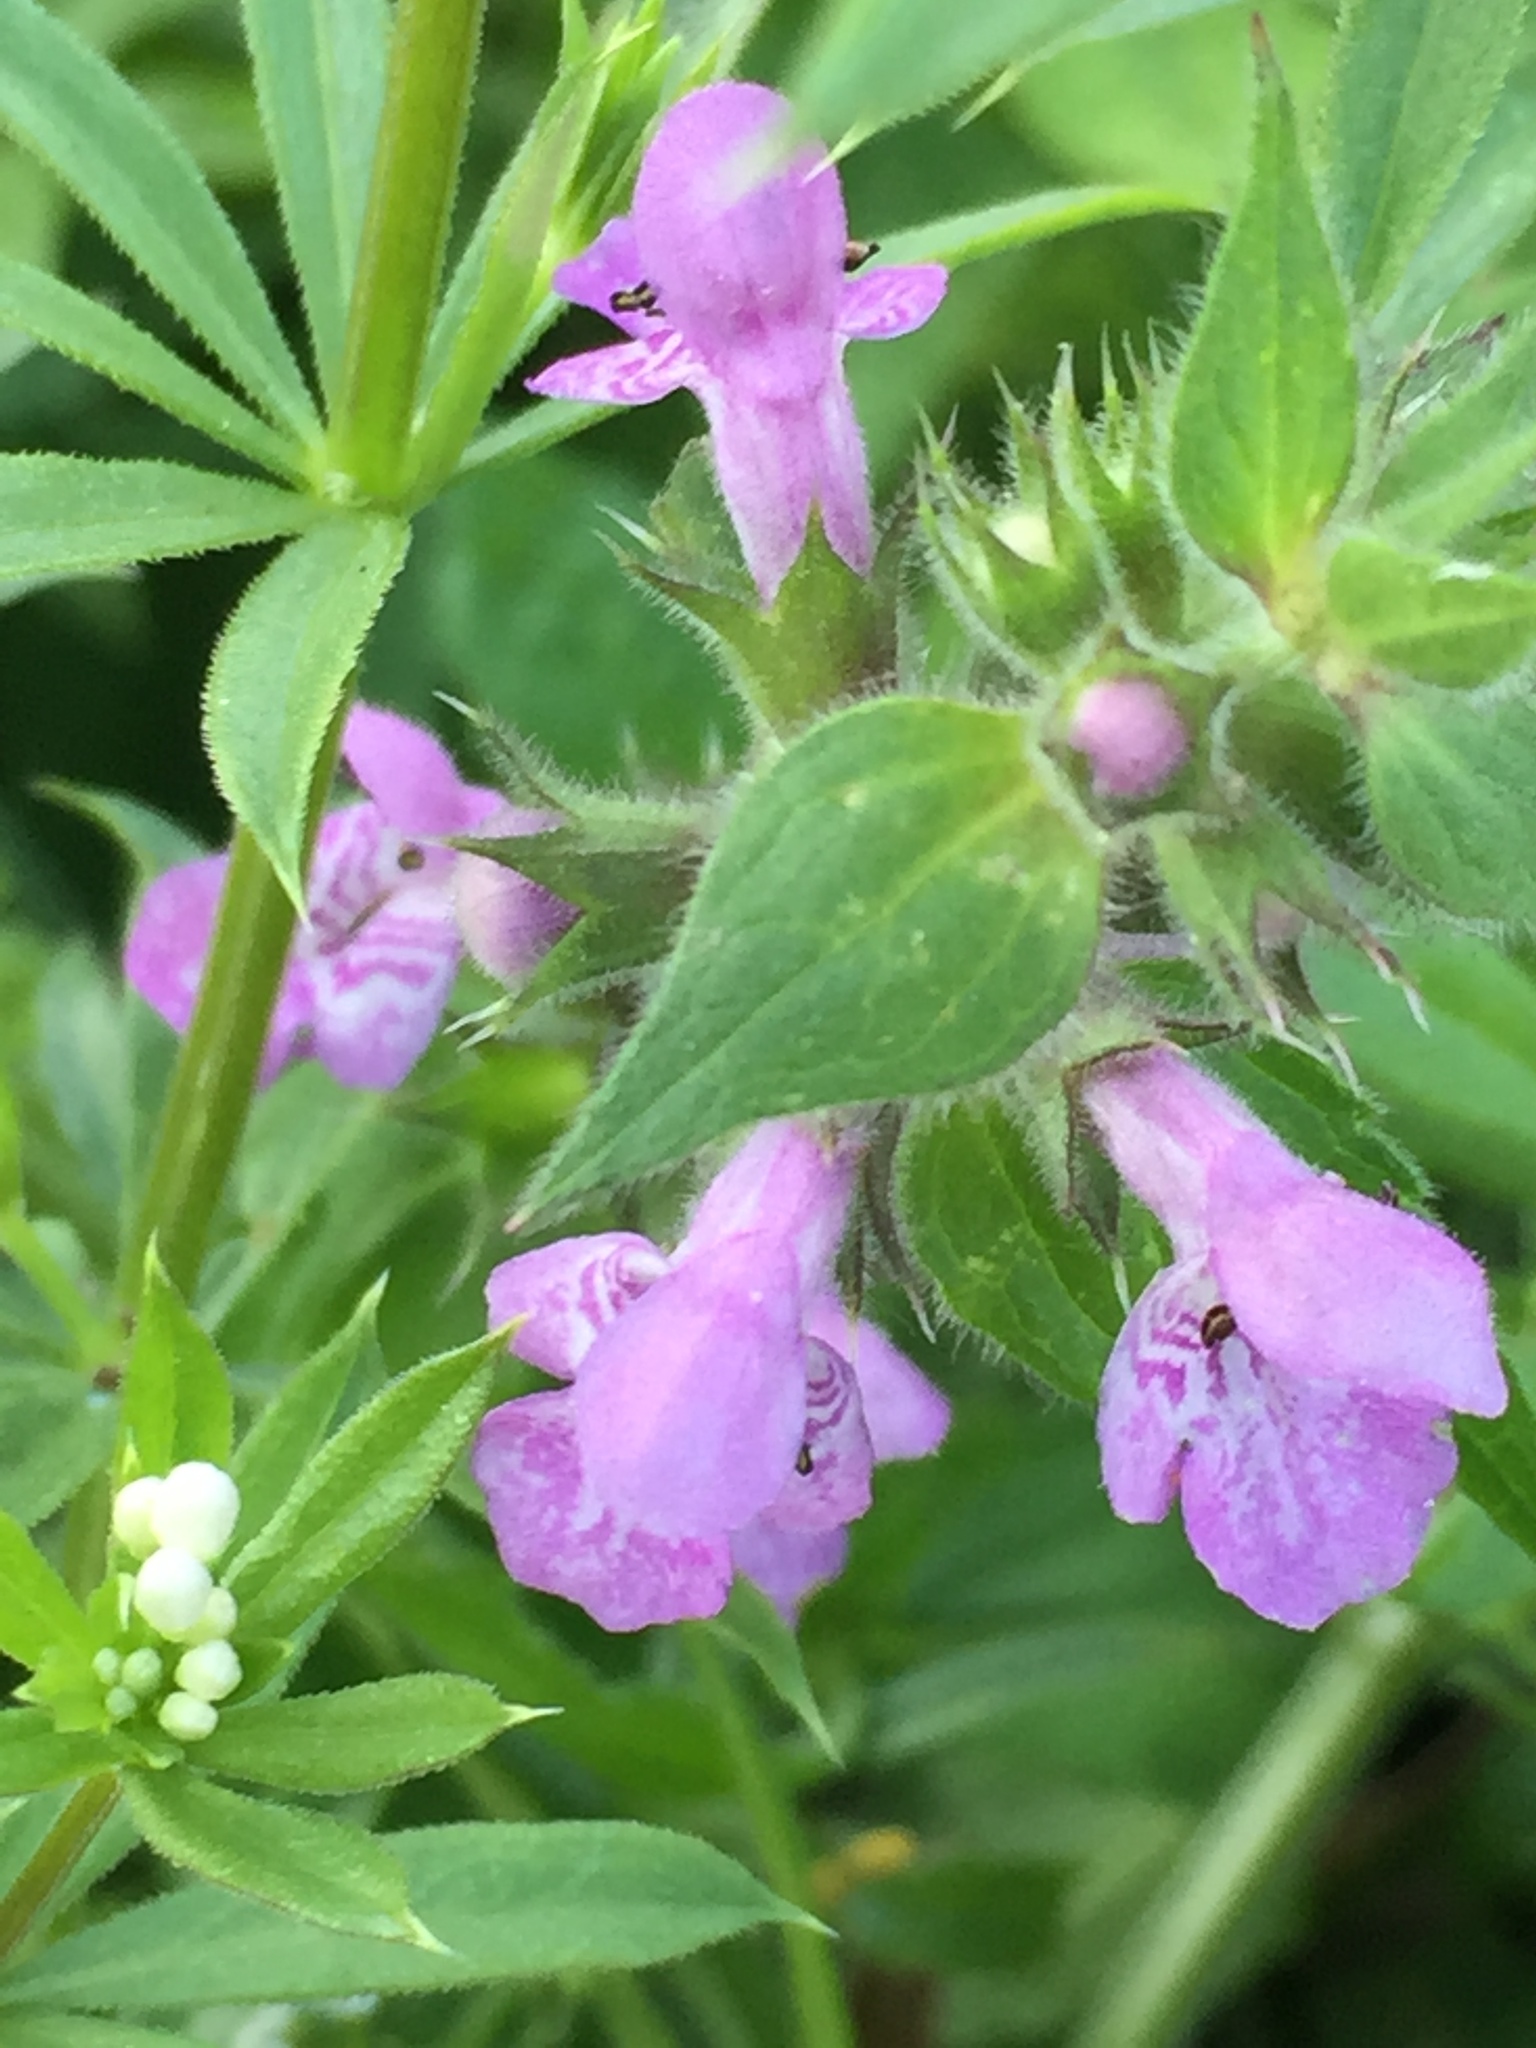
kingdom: Plantae
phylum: Tracheophyta
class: Magnoliopsida
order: Lamiales
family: Lamiaceae
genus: Stachys
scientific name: Stachys palustris
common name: Marsh woundwort
